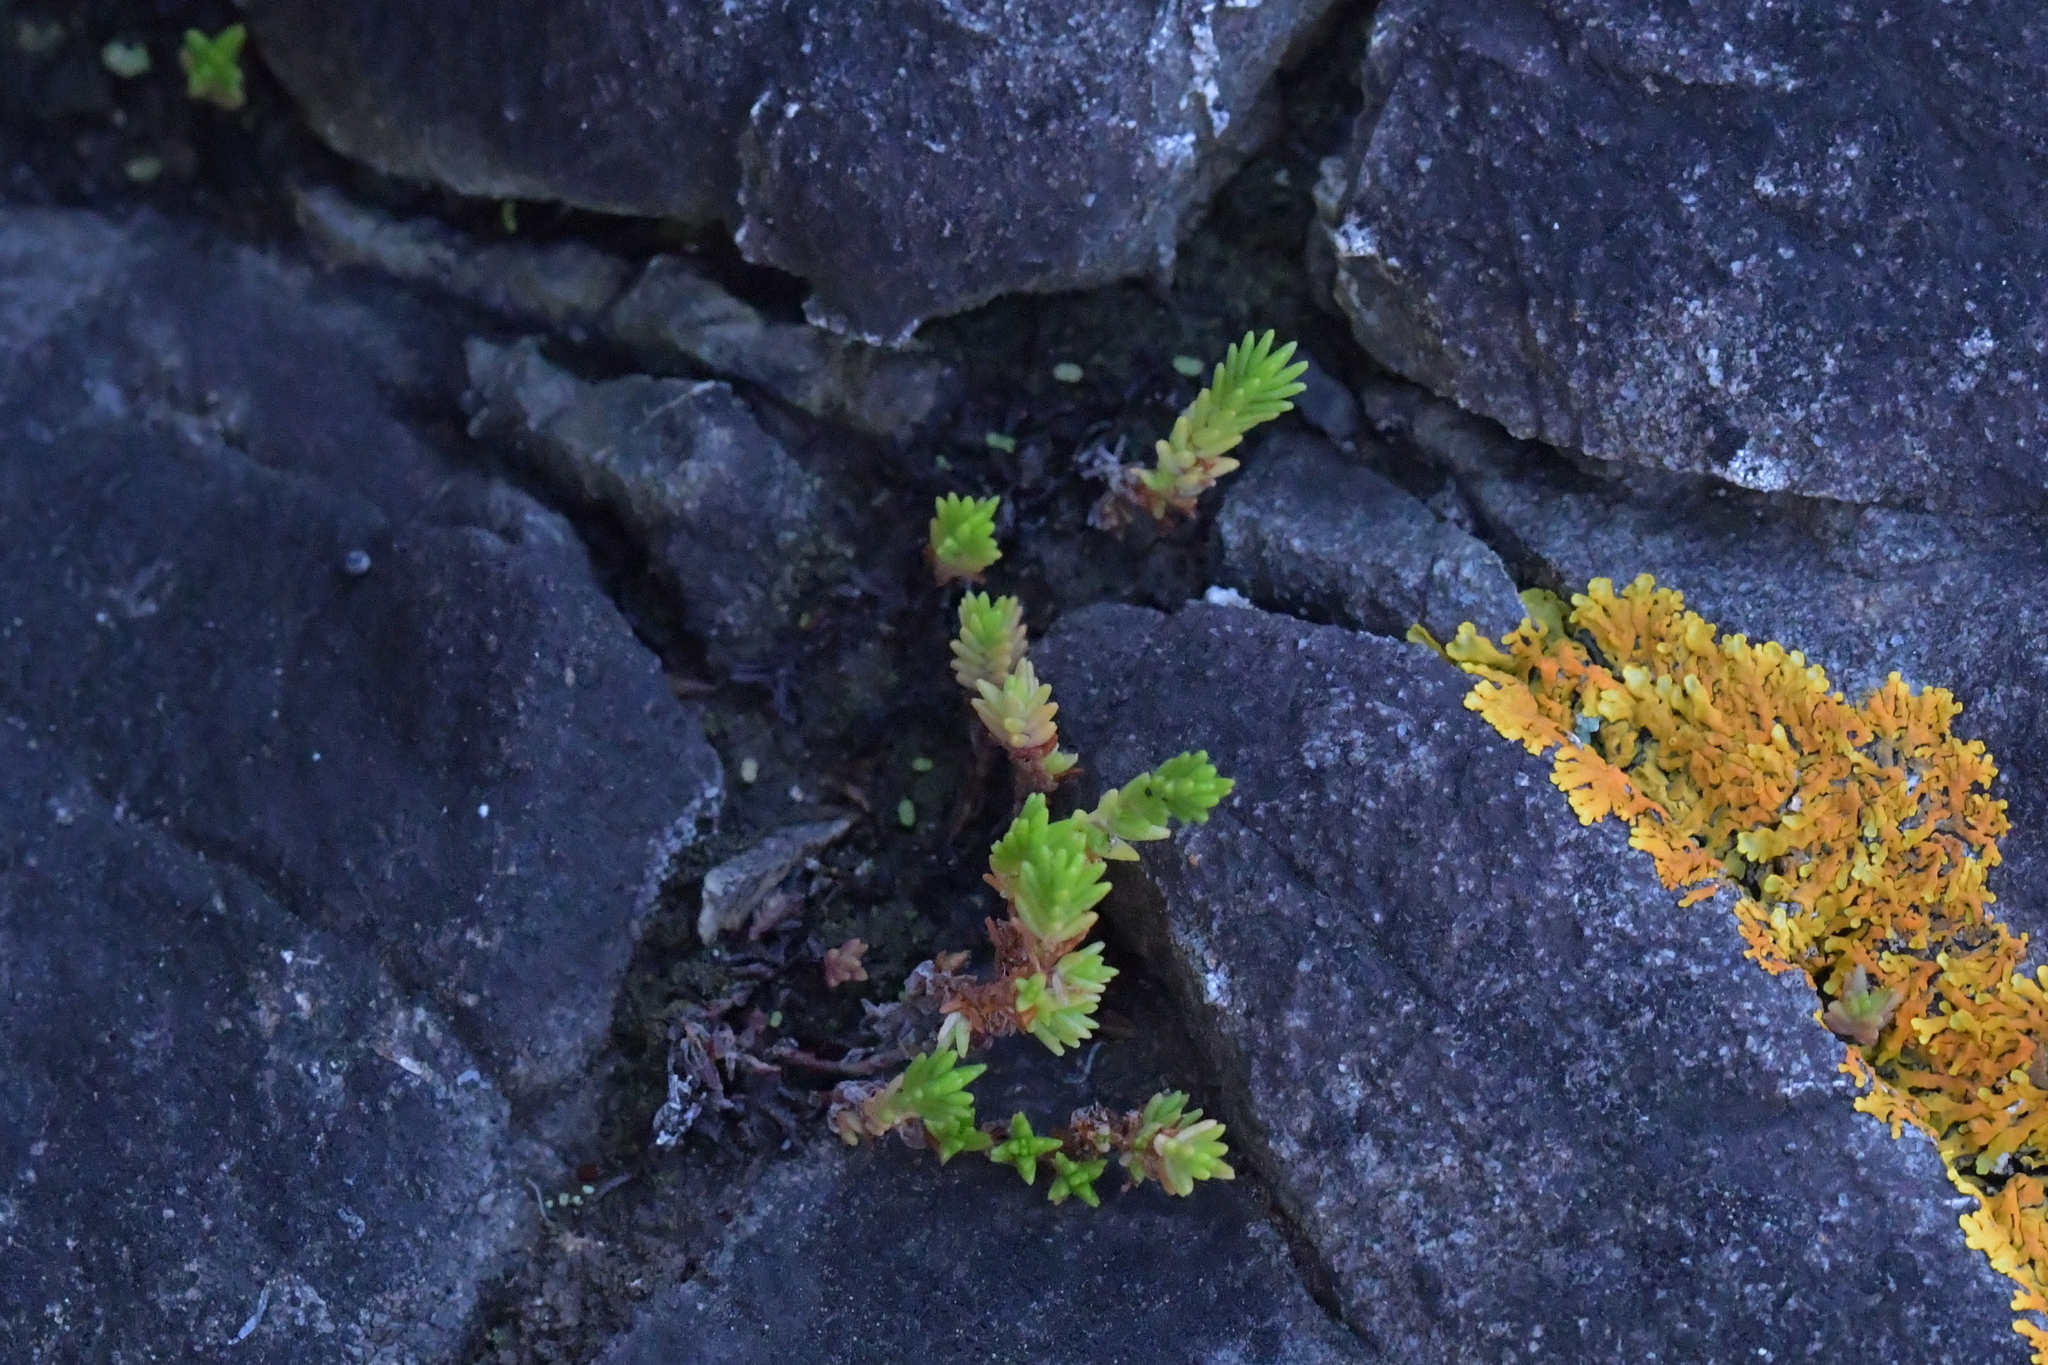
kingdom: Plantae
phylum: Tracheophyta
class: Magnoliopsida
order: Saxifragales
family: Crassulaceae
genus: Crassula
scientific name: Crassula sieberiana
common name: Siberian pygmyweed
